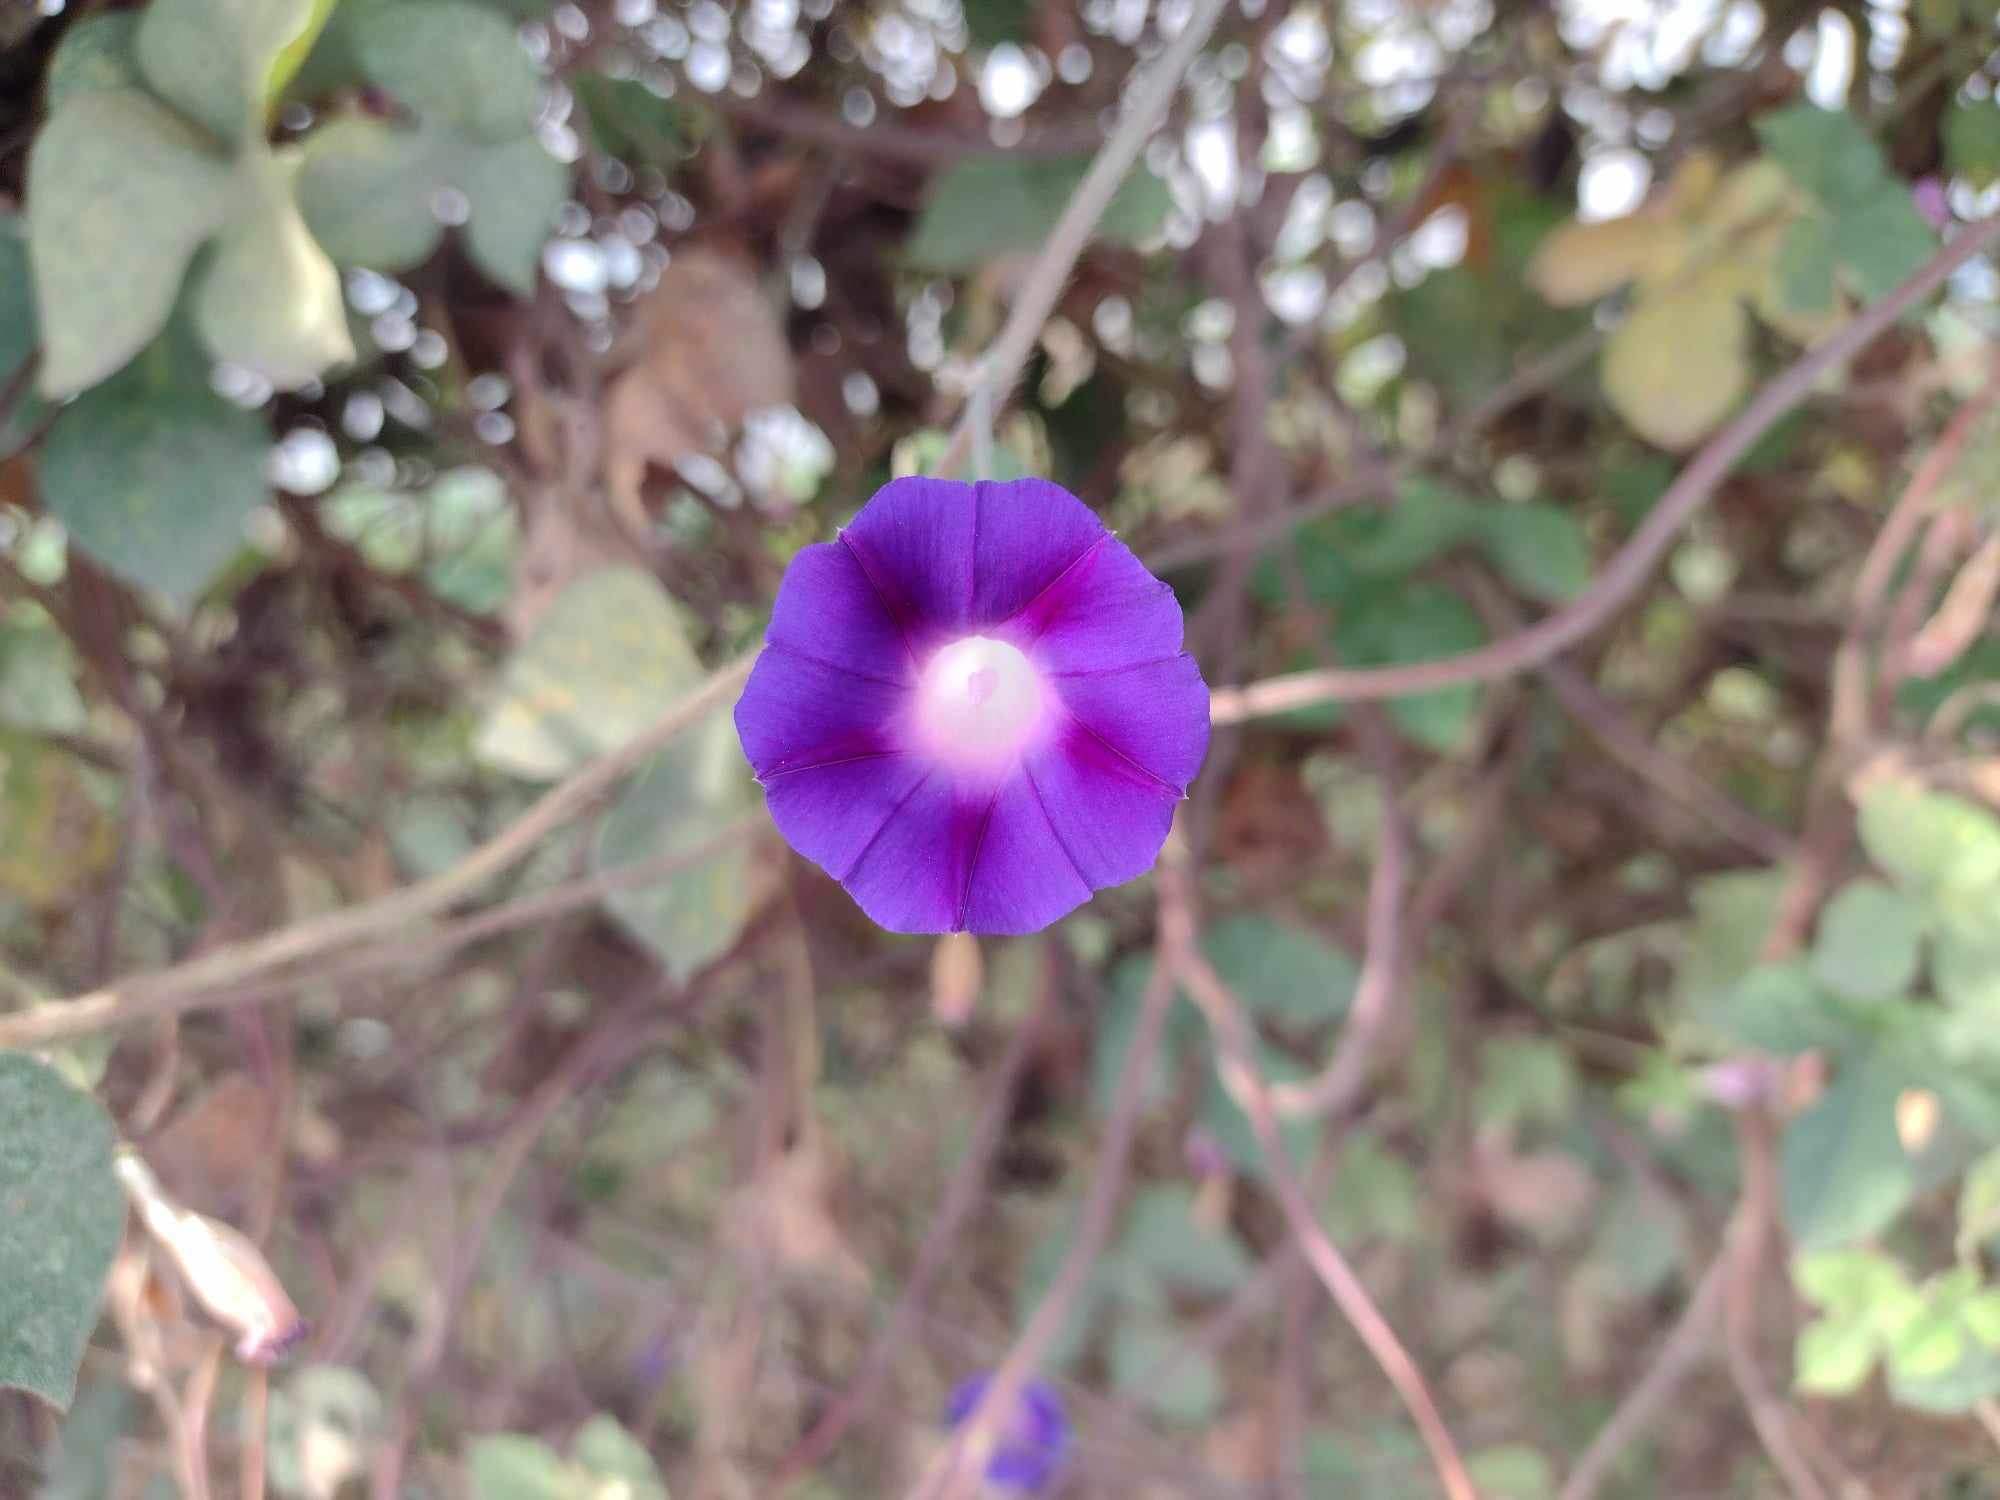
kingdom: Plantae
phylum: Tracheophyta
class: Magnoliopsida
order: Solanales
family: Convolvulaceae
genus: Ipomoea
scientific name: Ipomoea purpurea
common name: Common morning-glory
